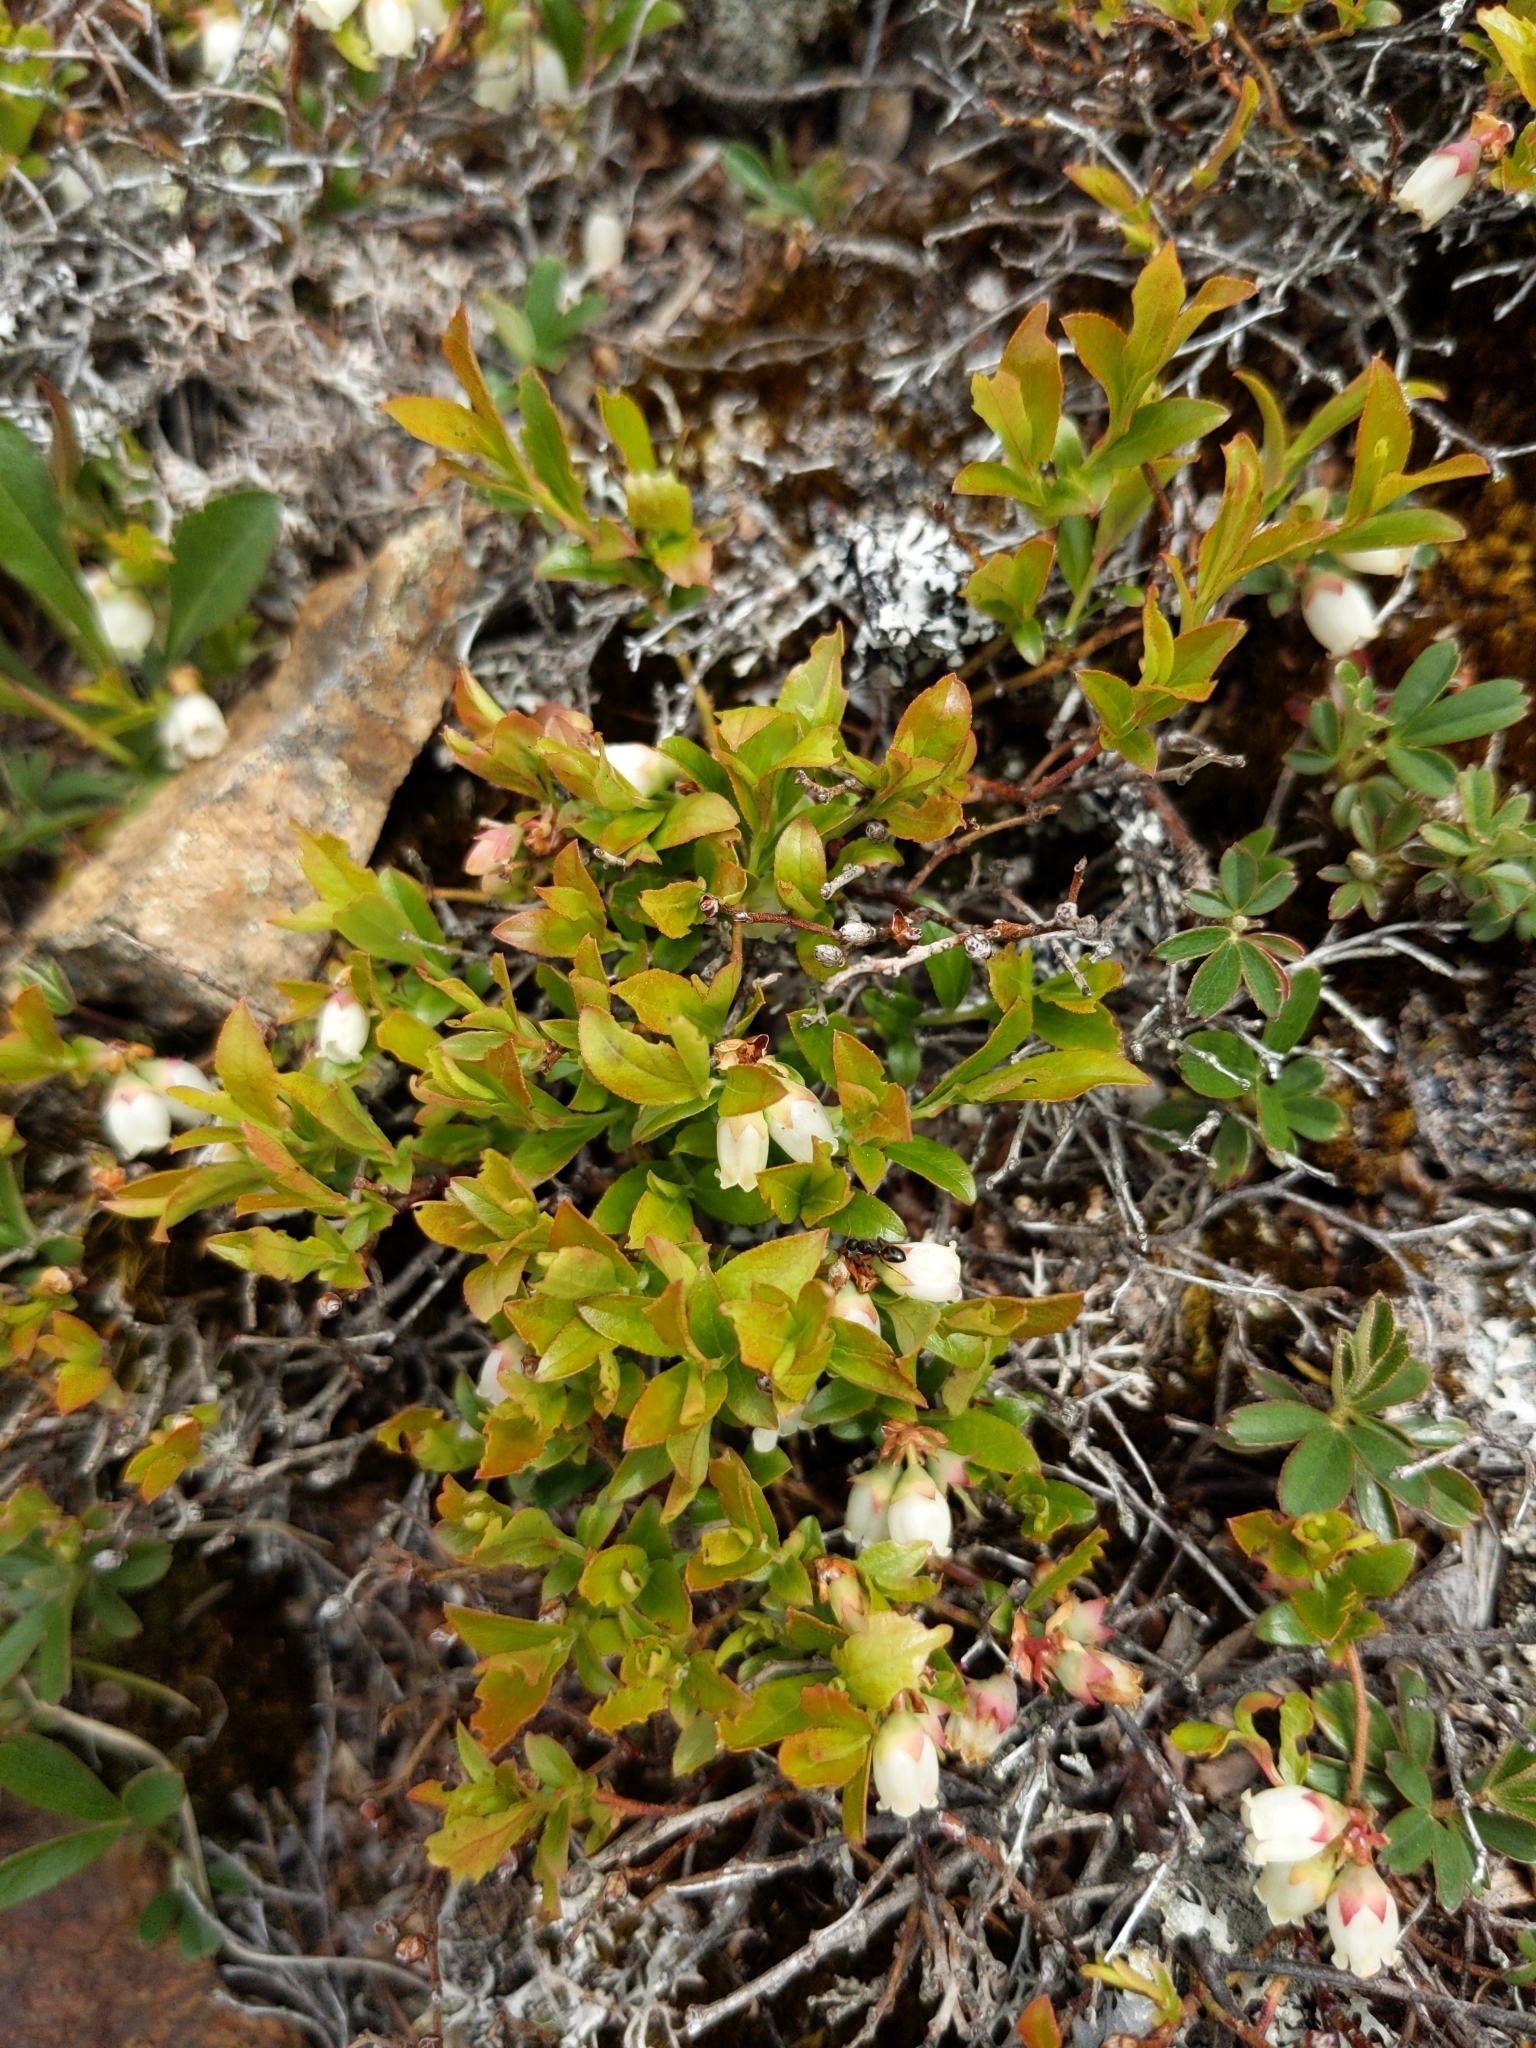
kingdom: Plantae
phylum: Tracheophyta
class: Magnoliopsida
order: Ericales
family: Ericaceae
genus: Vaccinium
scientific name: Vaccinium boreale
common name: Northern blueberry
